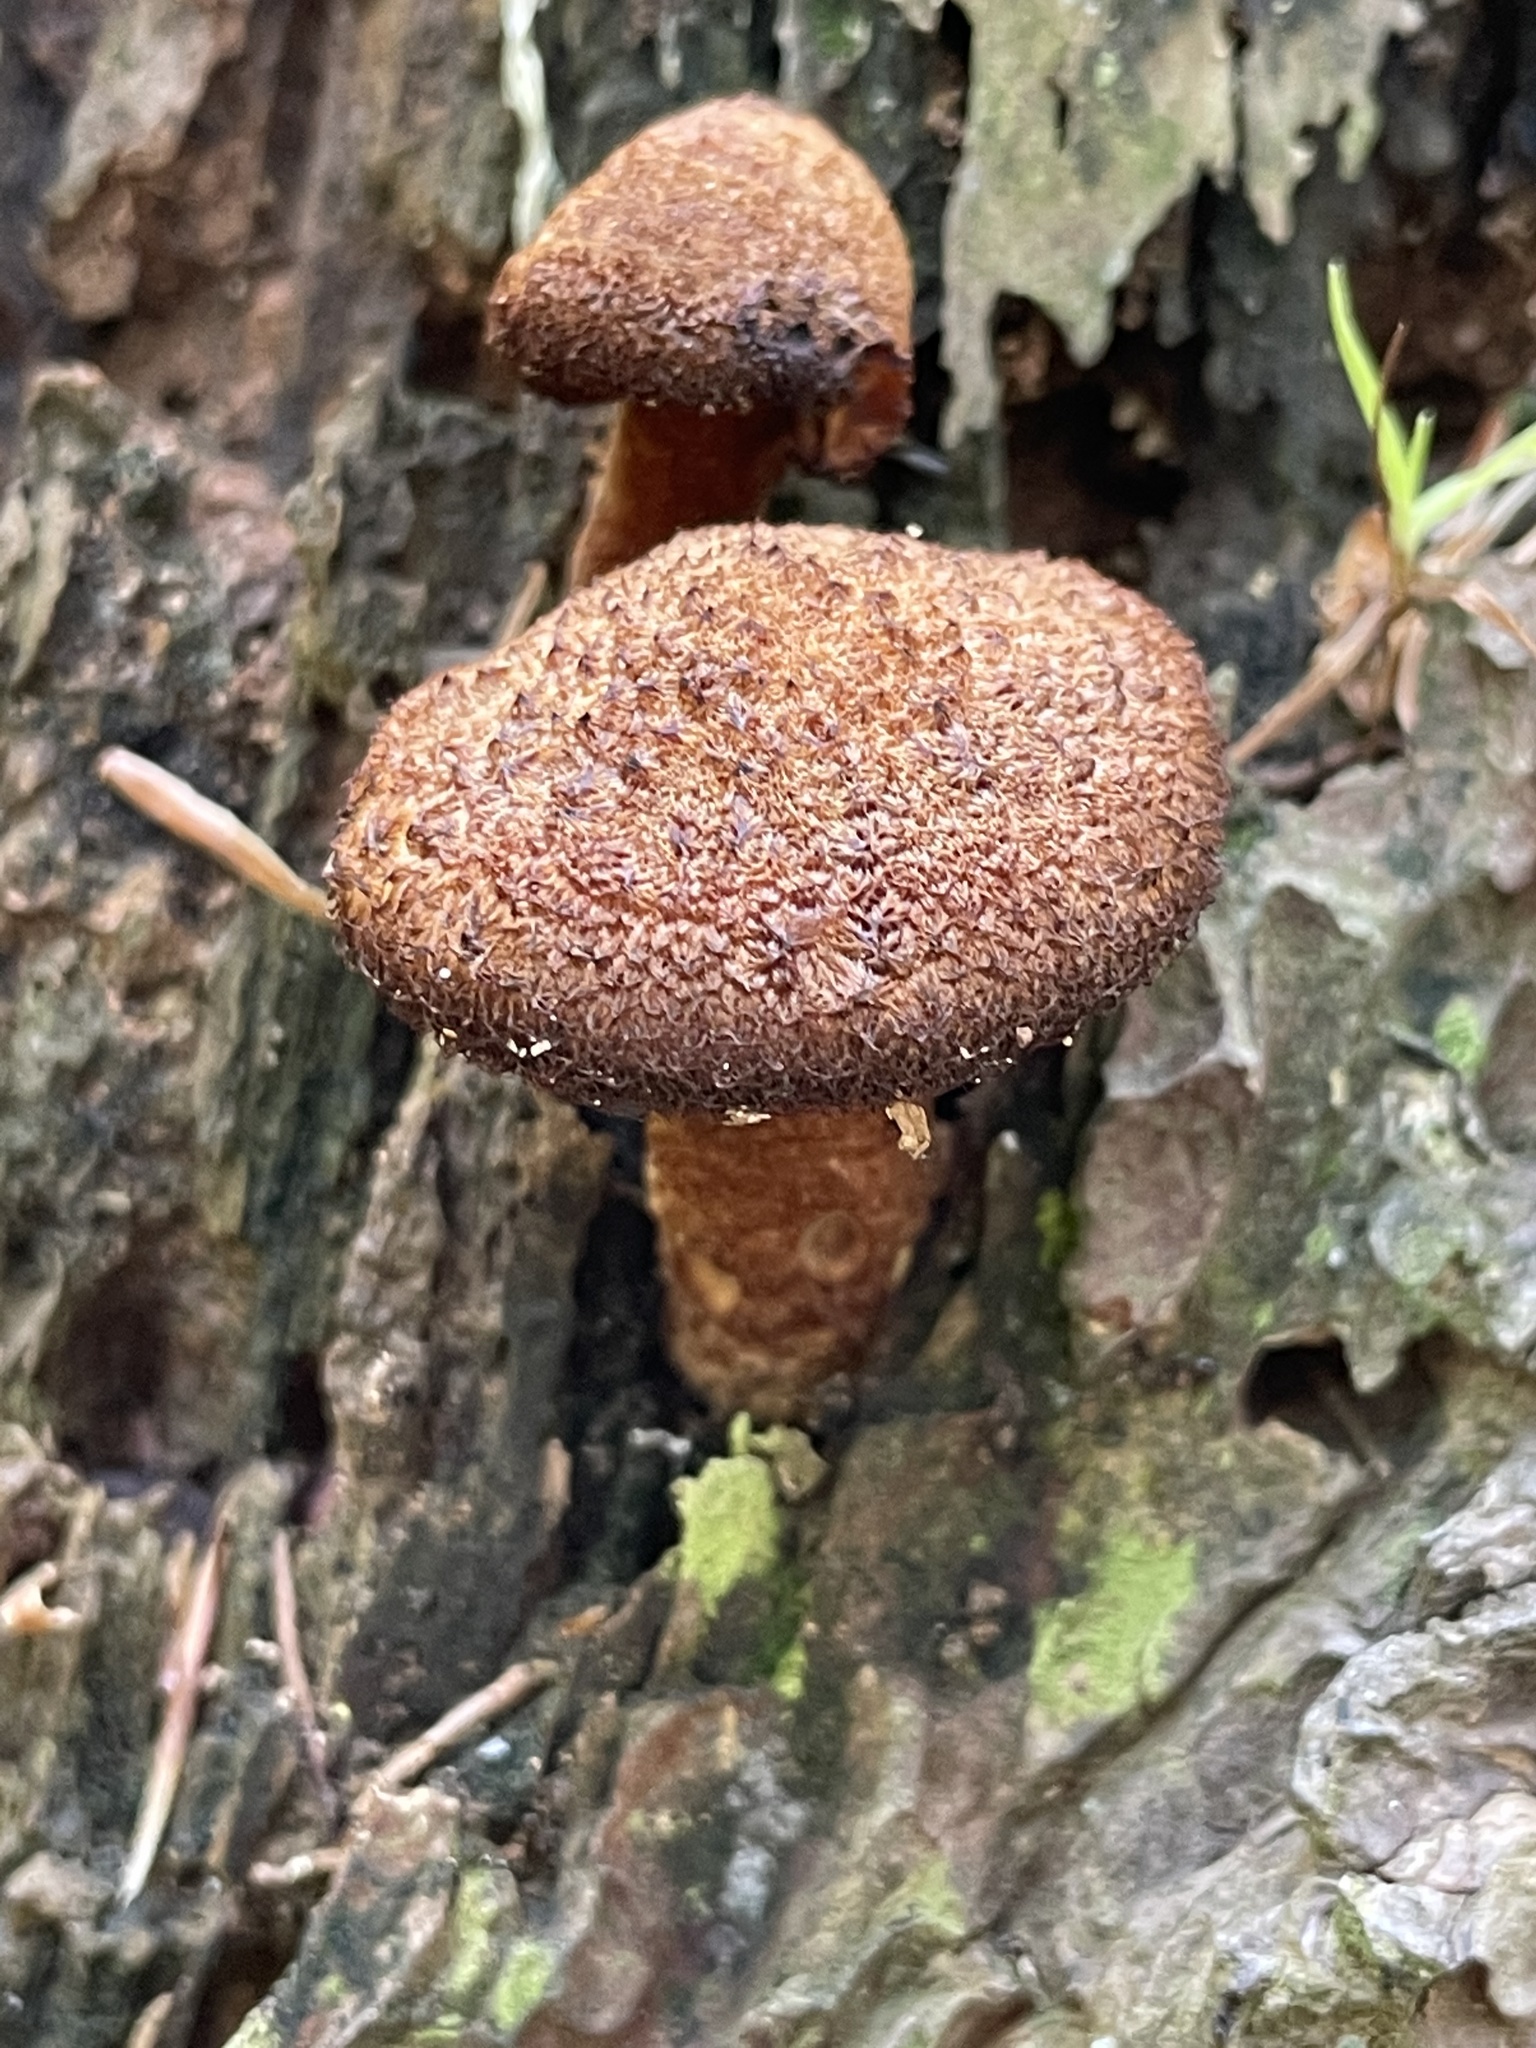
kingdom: Fungi
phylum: Basidiomycota
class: Agaricomycetes
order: Agaricales
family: Tricholomataceae
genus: Tricholomopsis
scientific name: Tricholomopsis formosa
